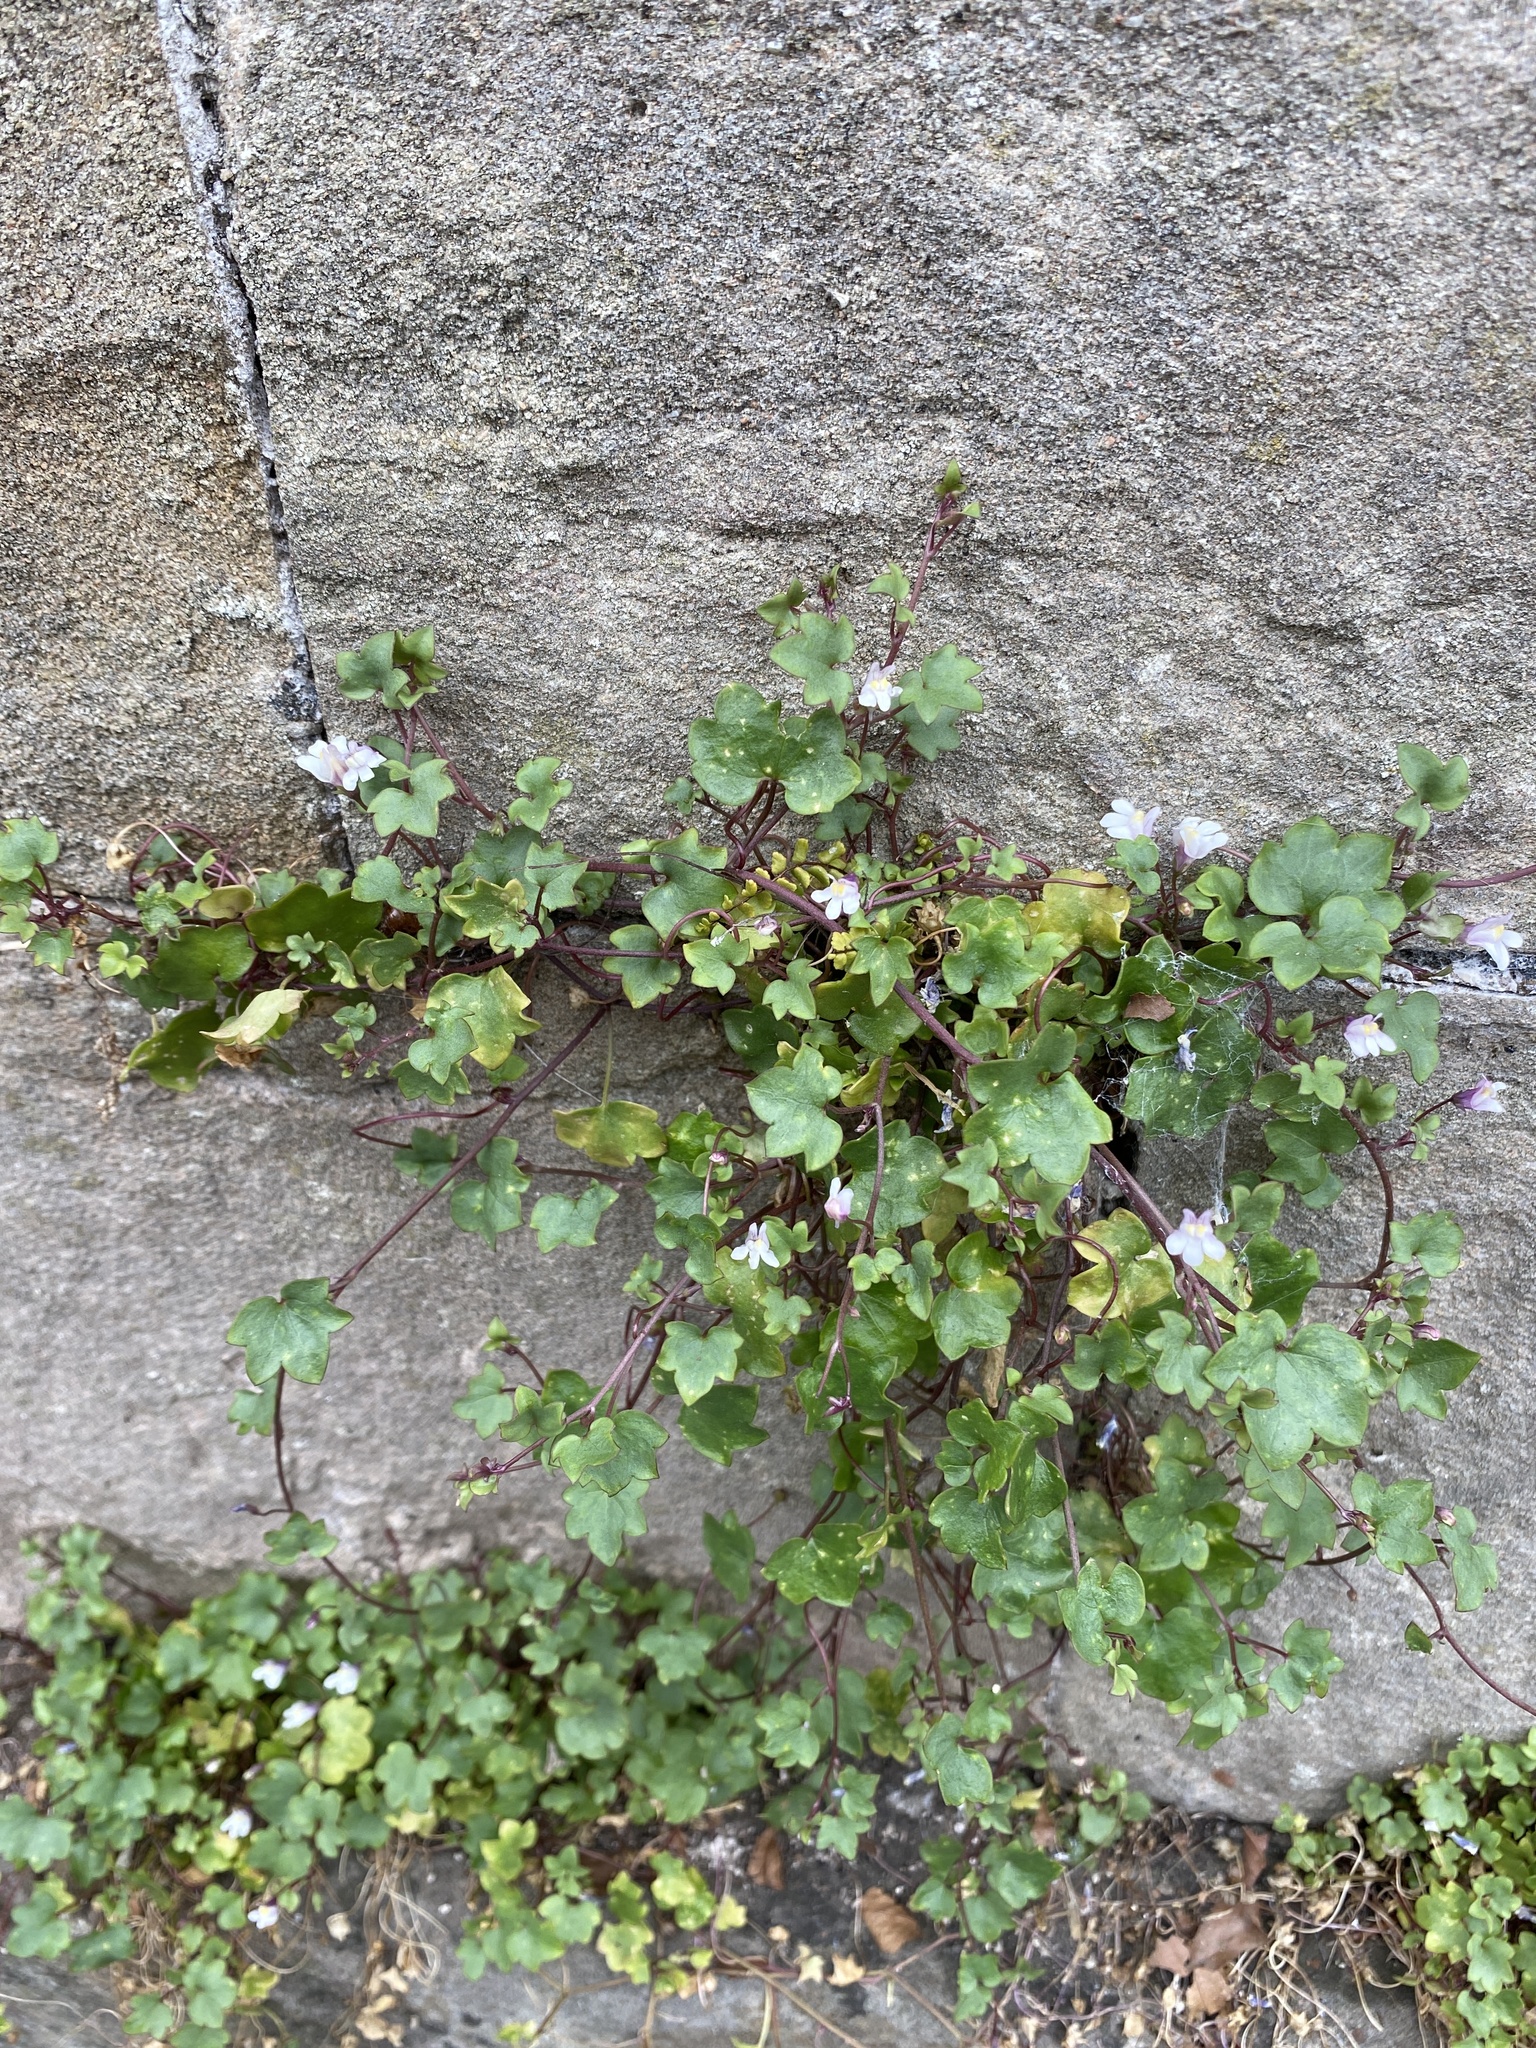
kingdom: Plantae
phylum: Tracheophyta
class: Magnoliopsida
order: Lamiales
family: Plantaginaceae
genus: Cymbalaria
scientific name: Cymbalaria muralis
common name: Ivy-leaved toadflax
